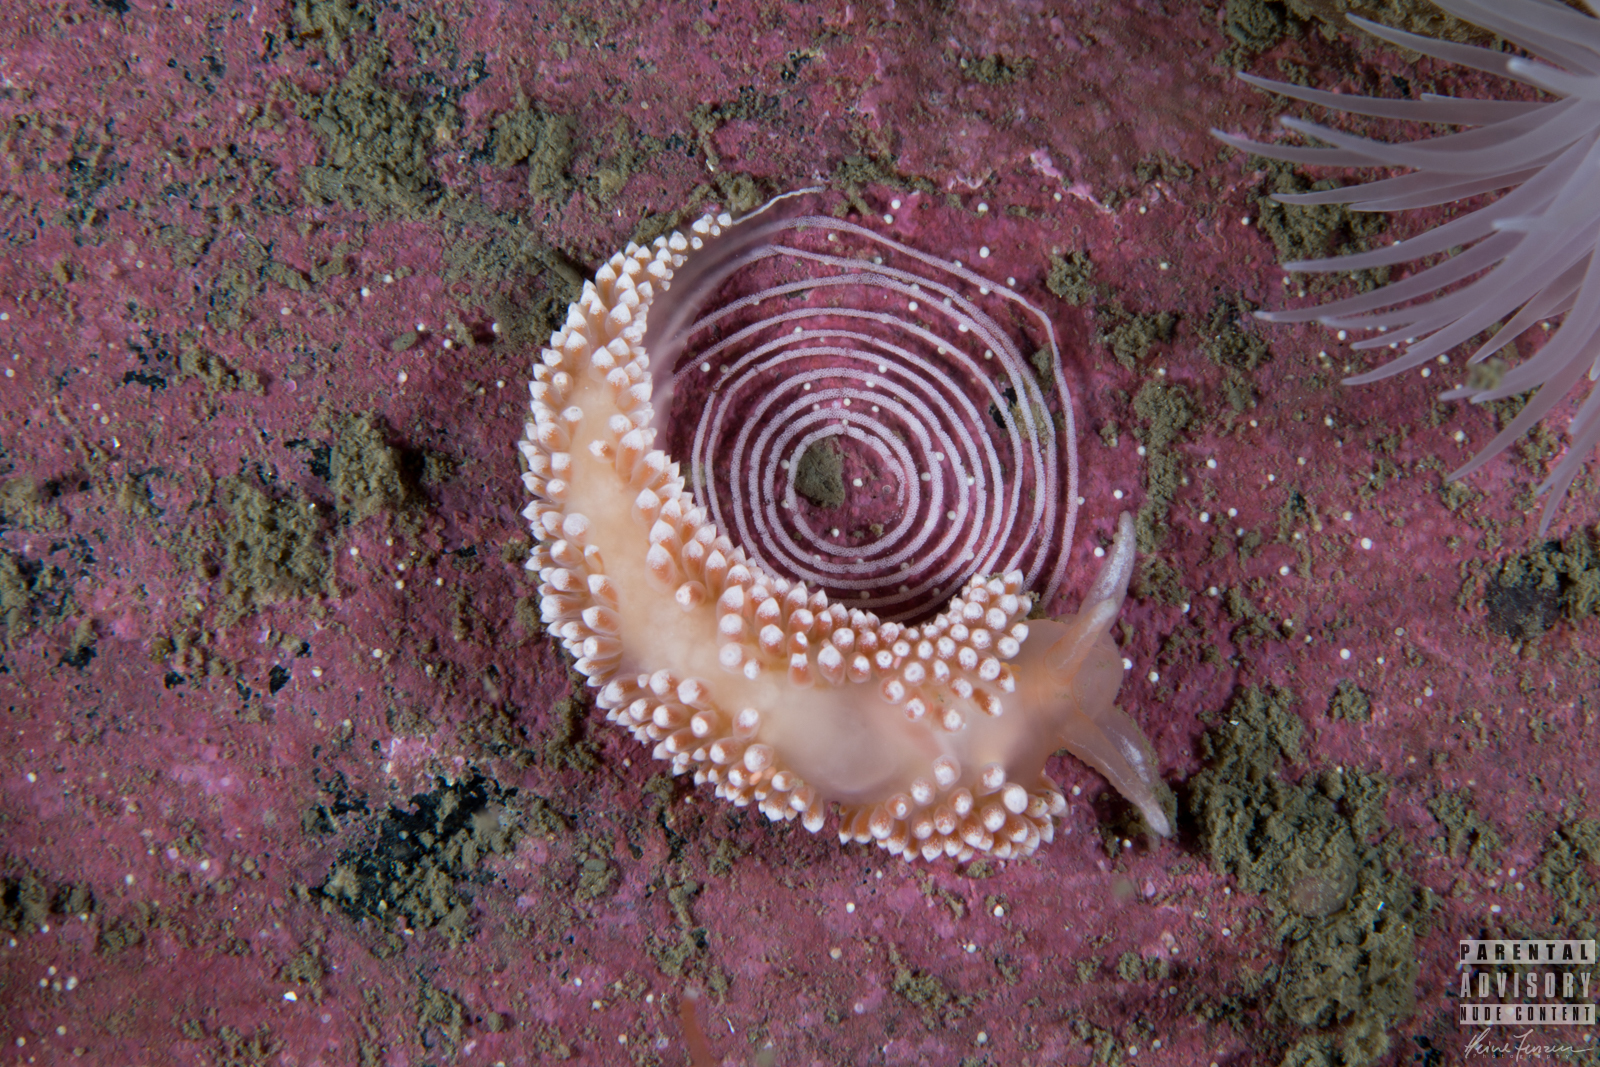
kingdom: Animalia
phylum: Mollusca
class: Gastropoda
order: Nudibranchia
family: Coryphellidae
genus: Coryphella
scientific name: Coryphella verrucosa
